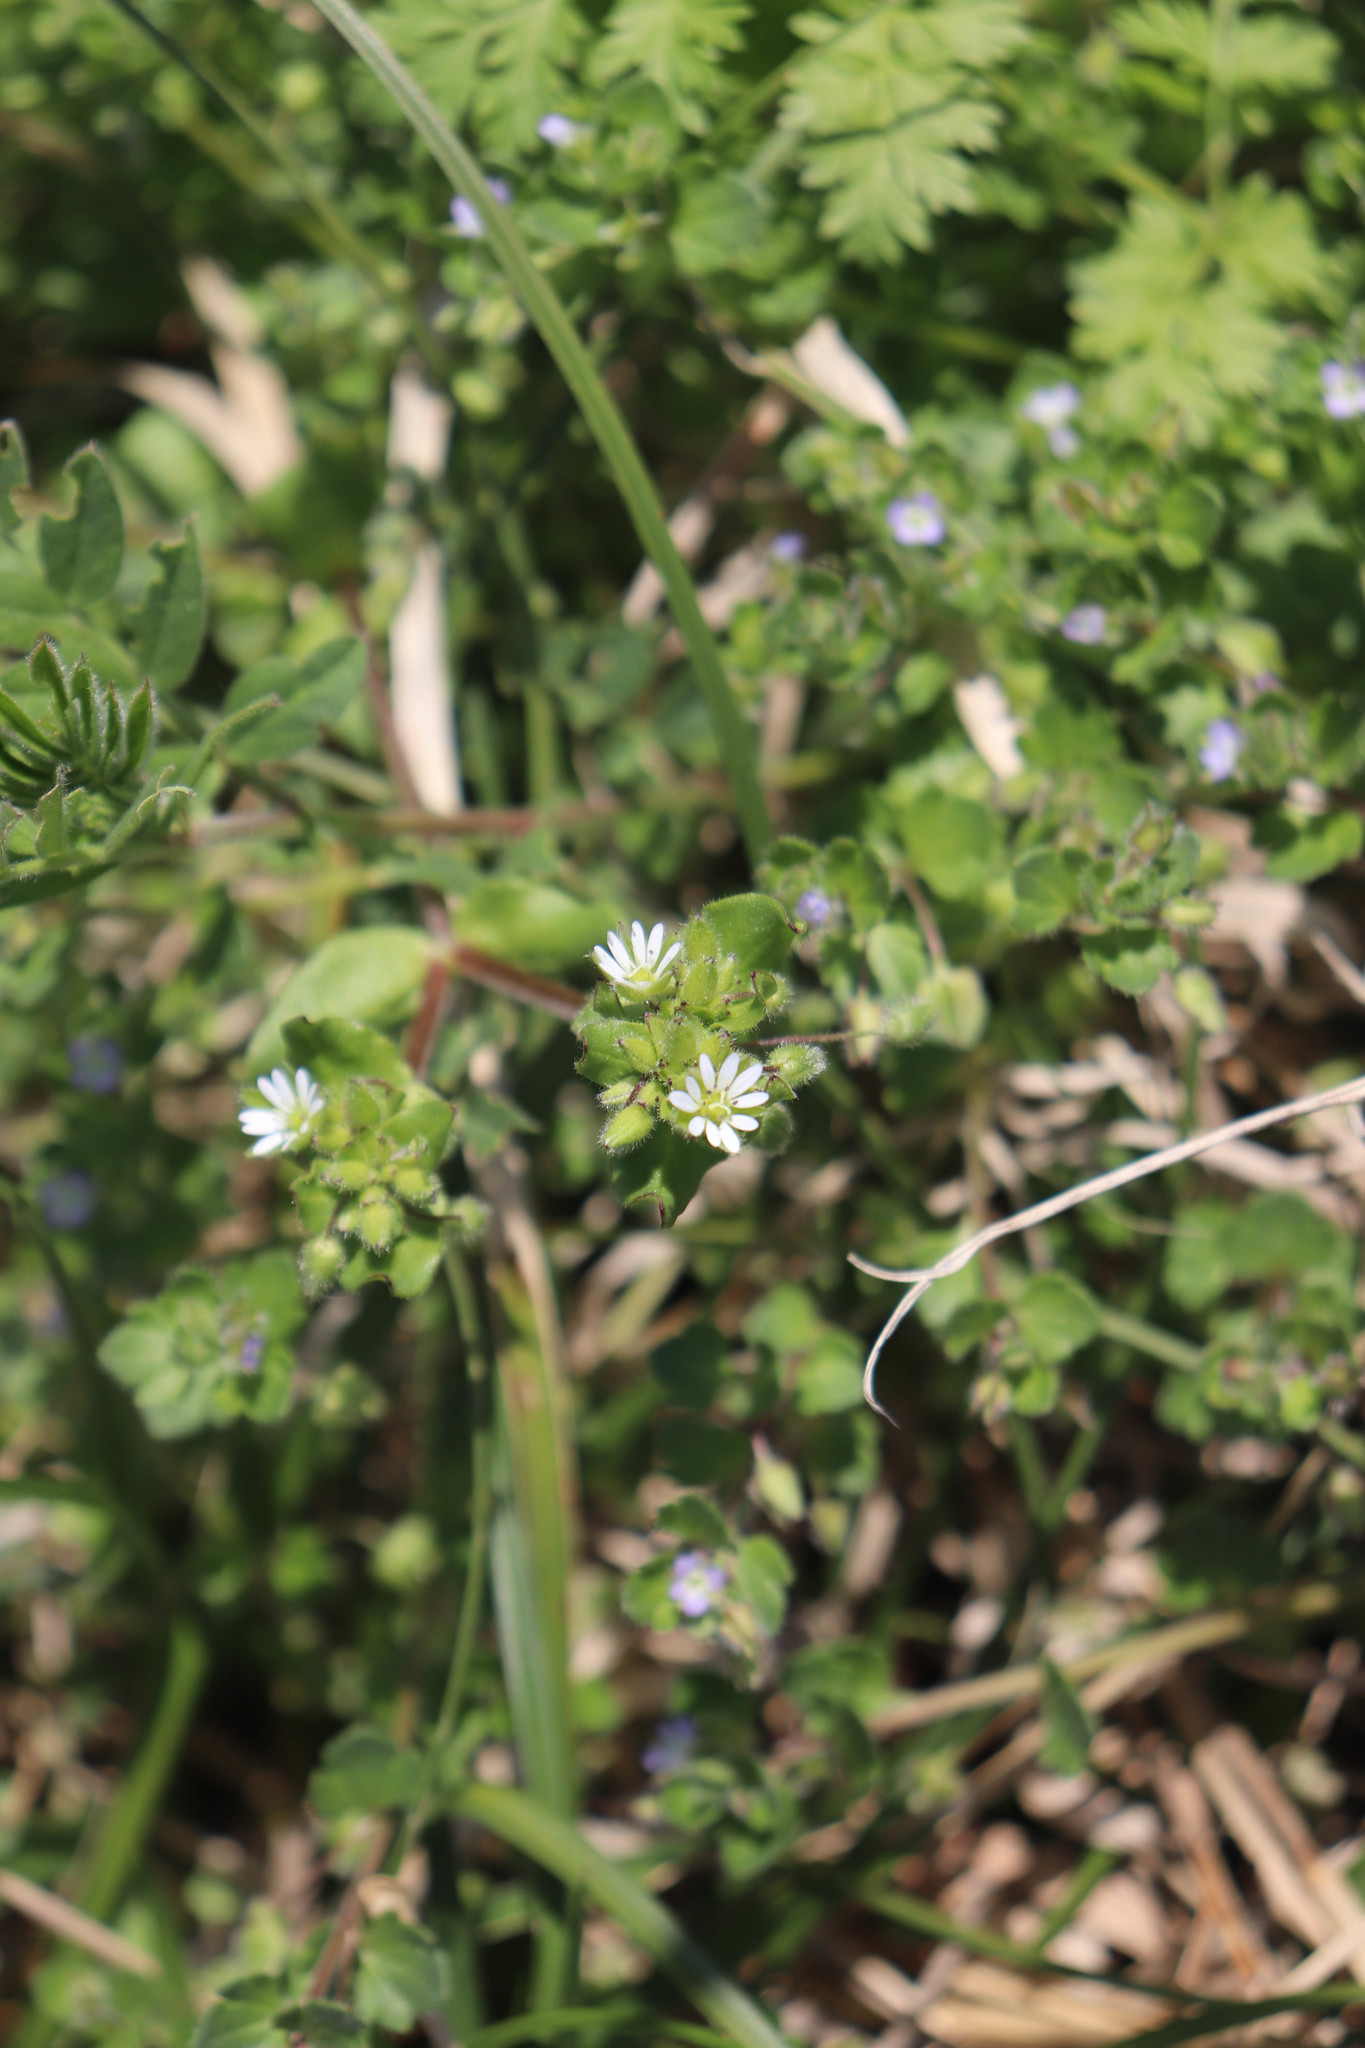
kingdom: Plantae
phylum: Tracheophyta
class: Magnoliopsida
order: Caryophyllales
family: Caryophyllaceae
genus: Stellaria
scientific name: Stellaria media
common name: Common chickweed
